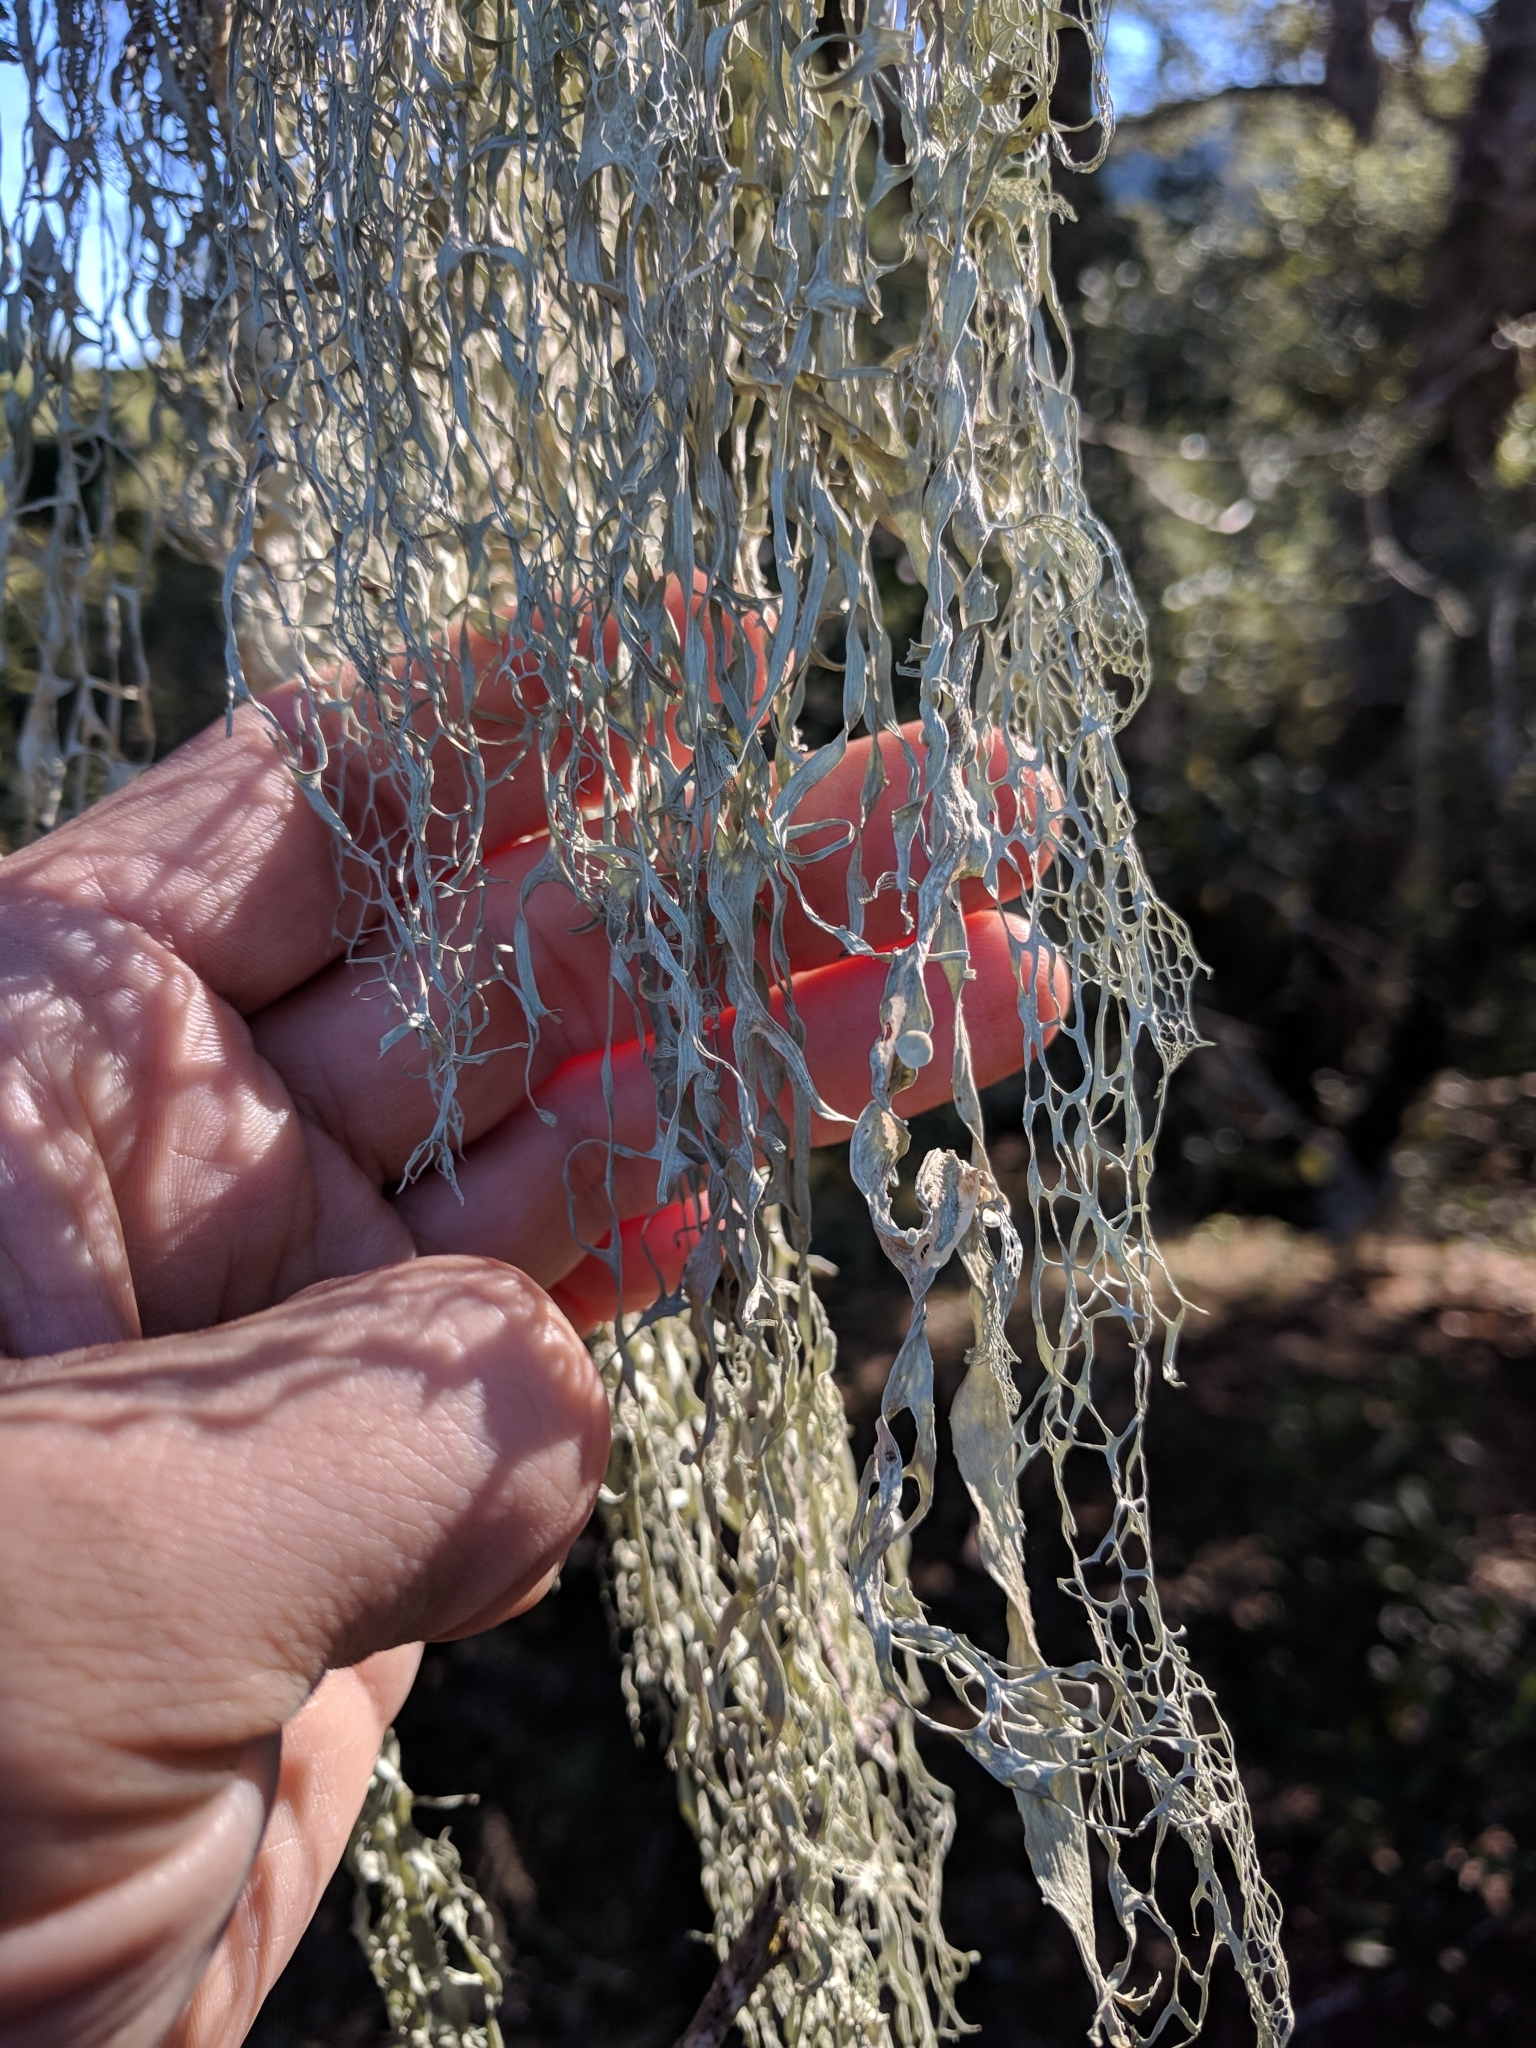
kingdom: Fungi
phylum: Ascomycota
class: Lecanoromycetes
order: Lecanorales
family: Ramalinaceae
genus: Ramalina
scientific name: Ramalina menziesii
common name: Lace lichen
